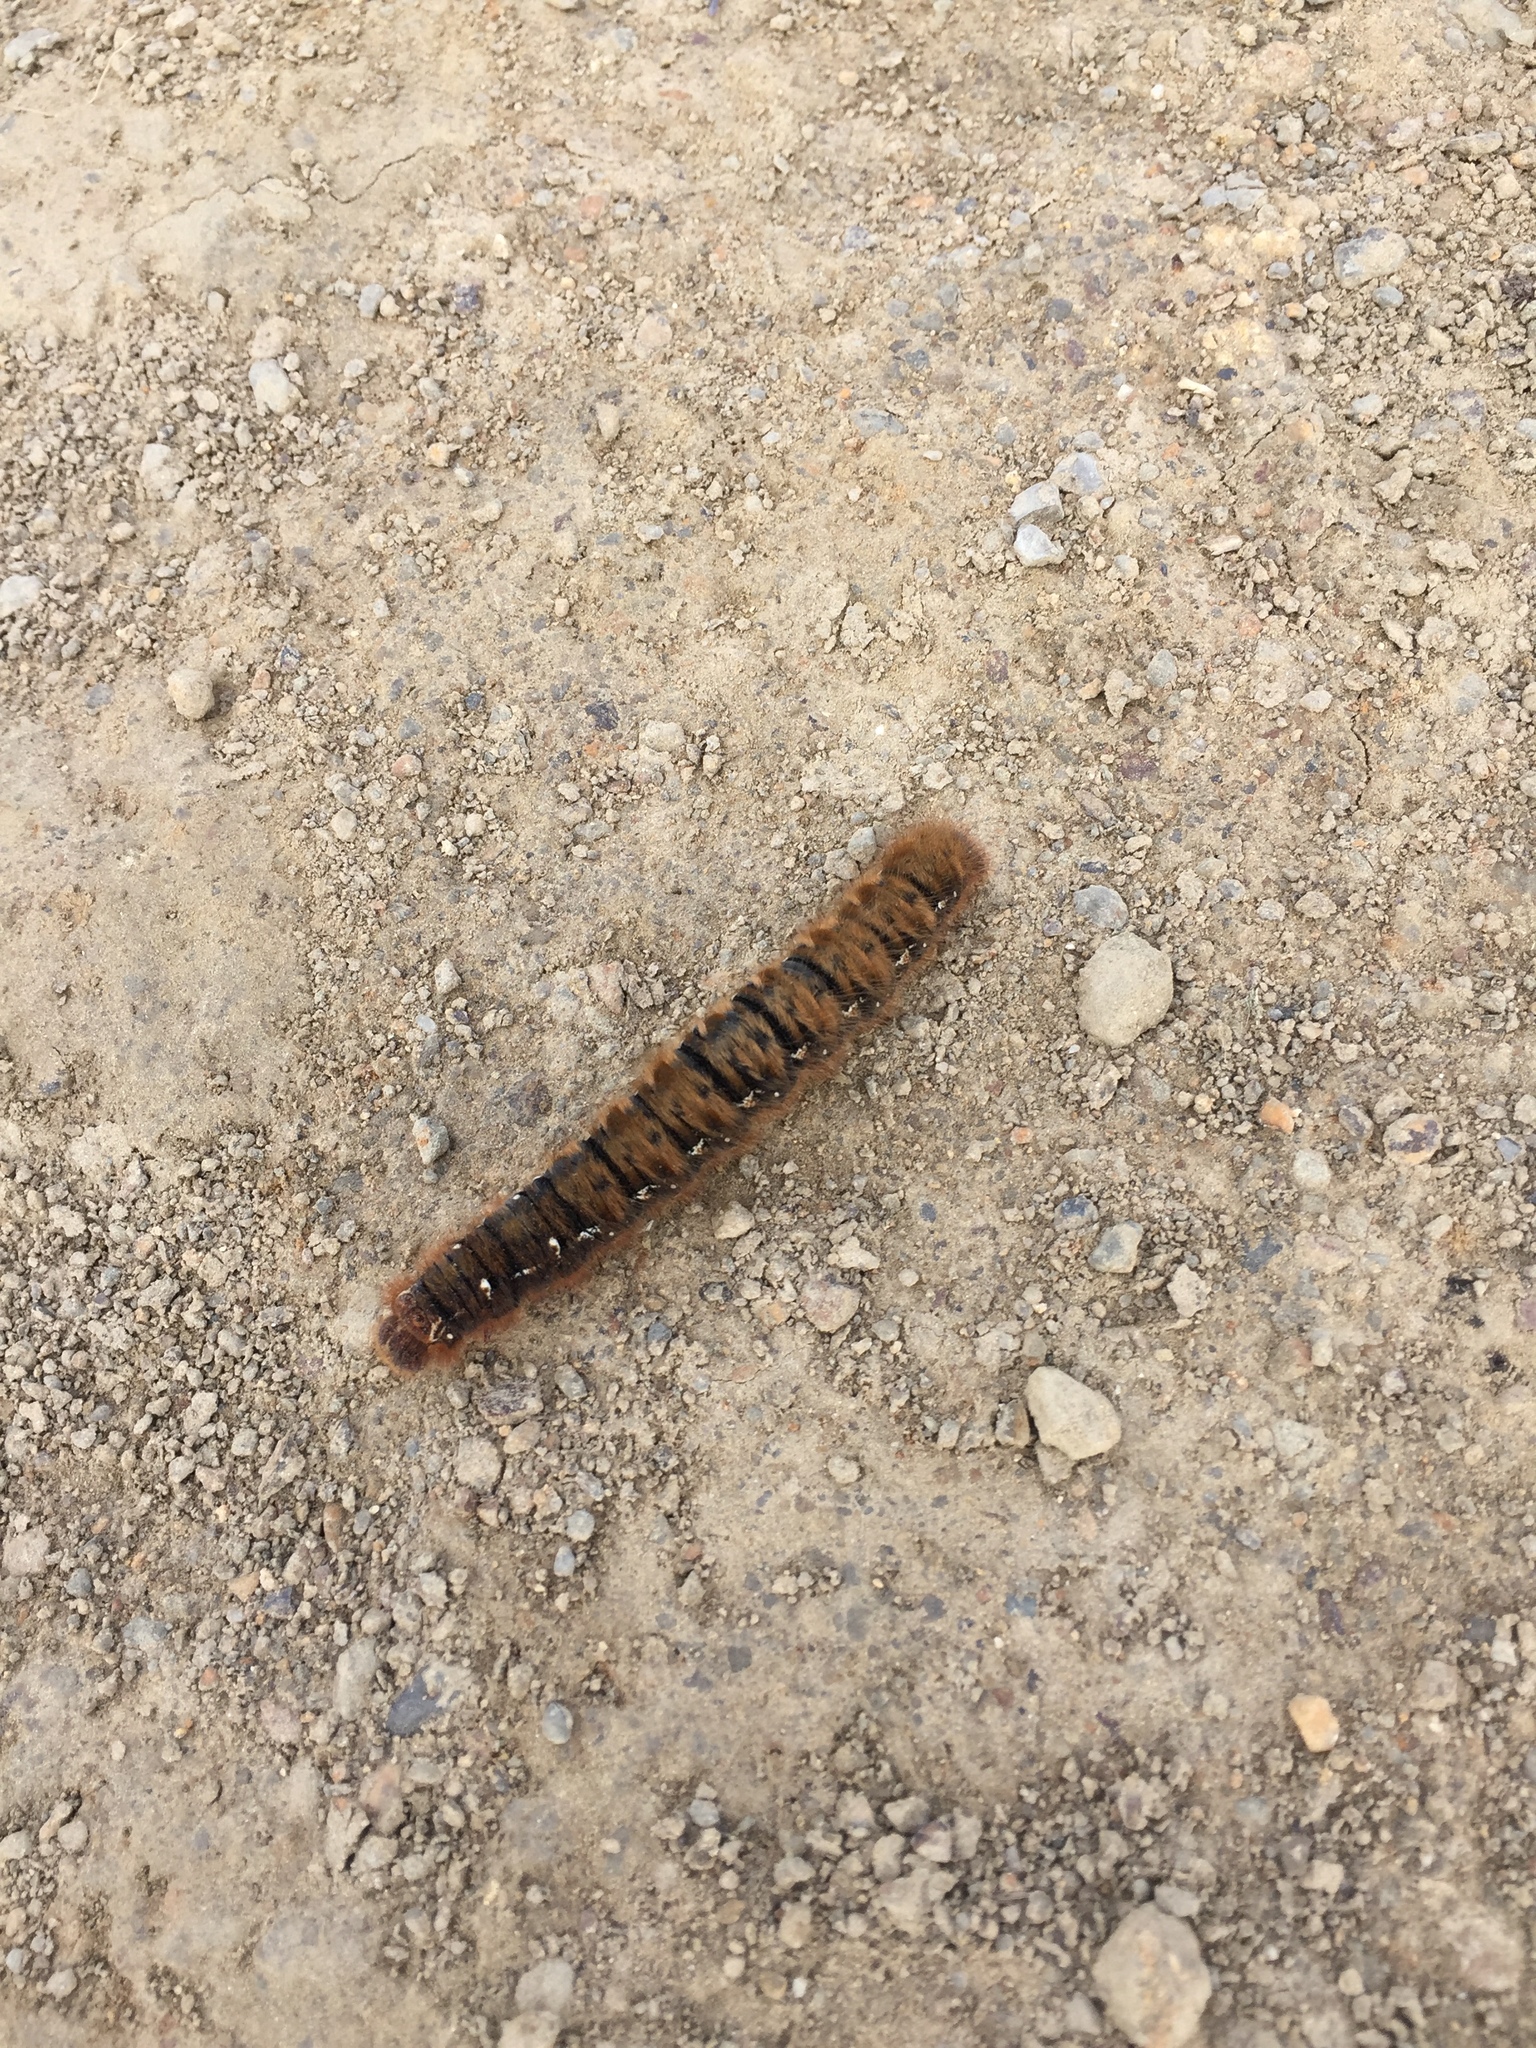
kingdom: Animalia
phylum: Arthropoda
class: Insecta
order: Lepidoptera
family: Lasiocampidae
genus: Lasiocampa
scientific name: Lasiocampa quercus
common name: Oak eggar
